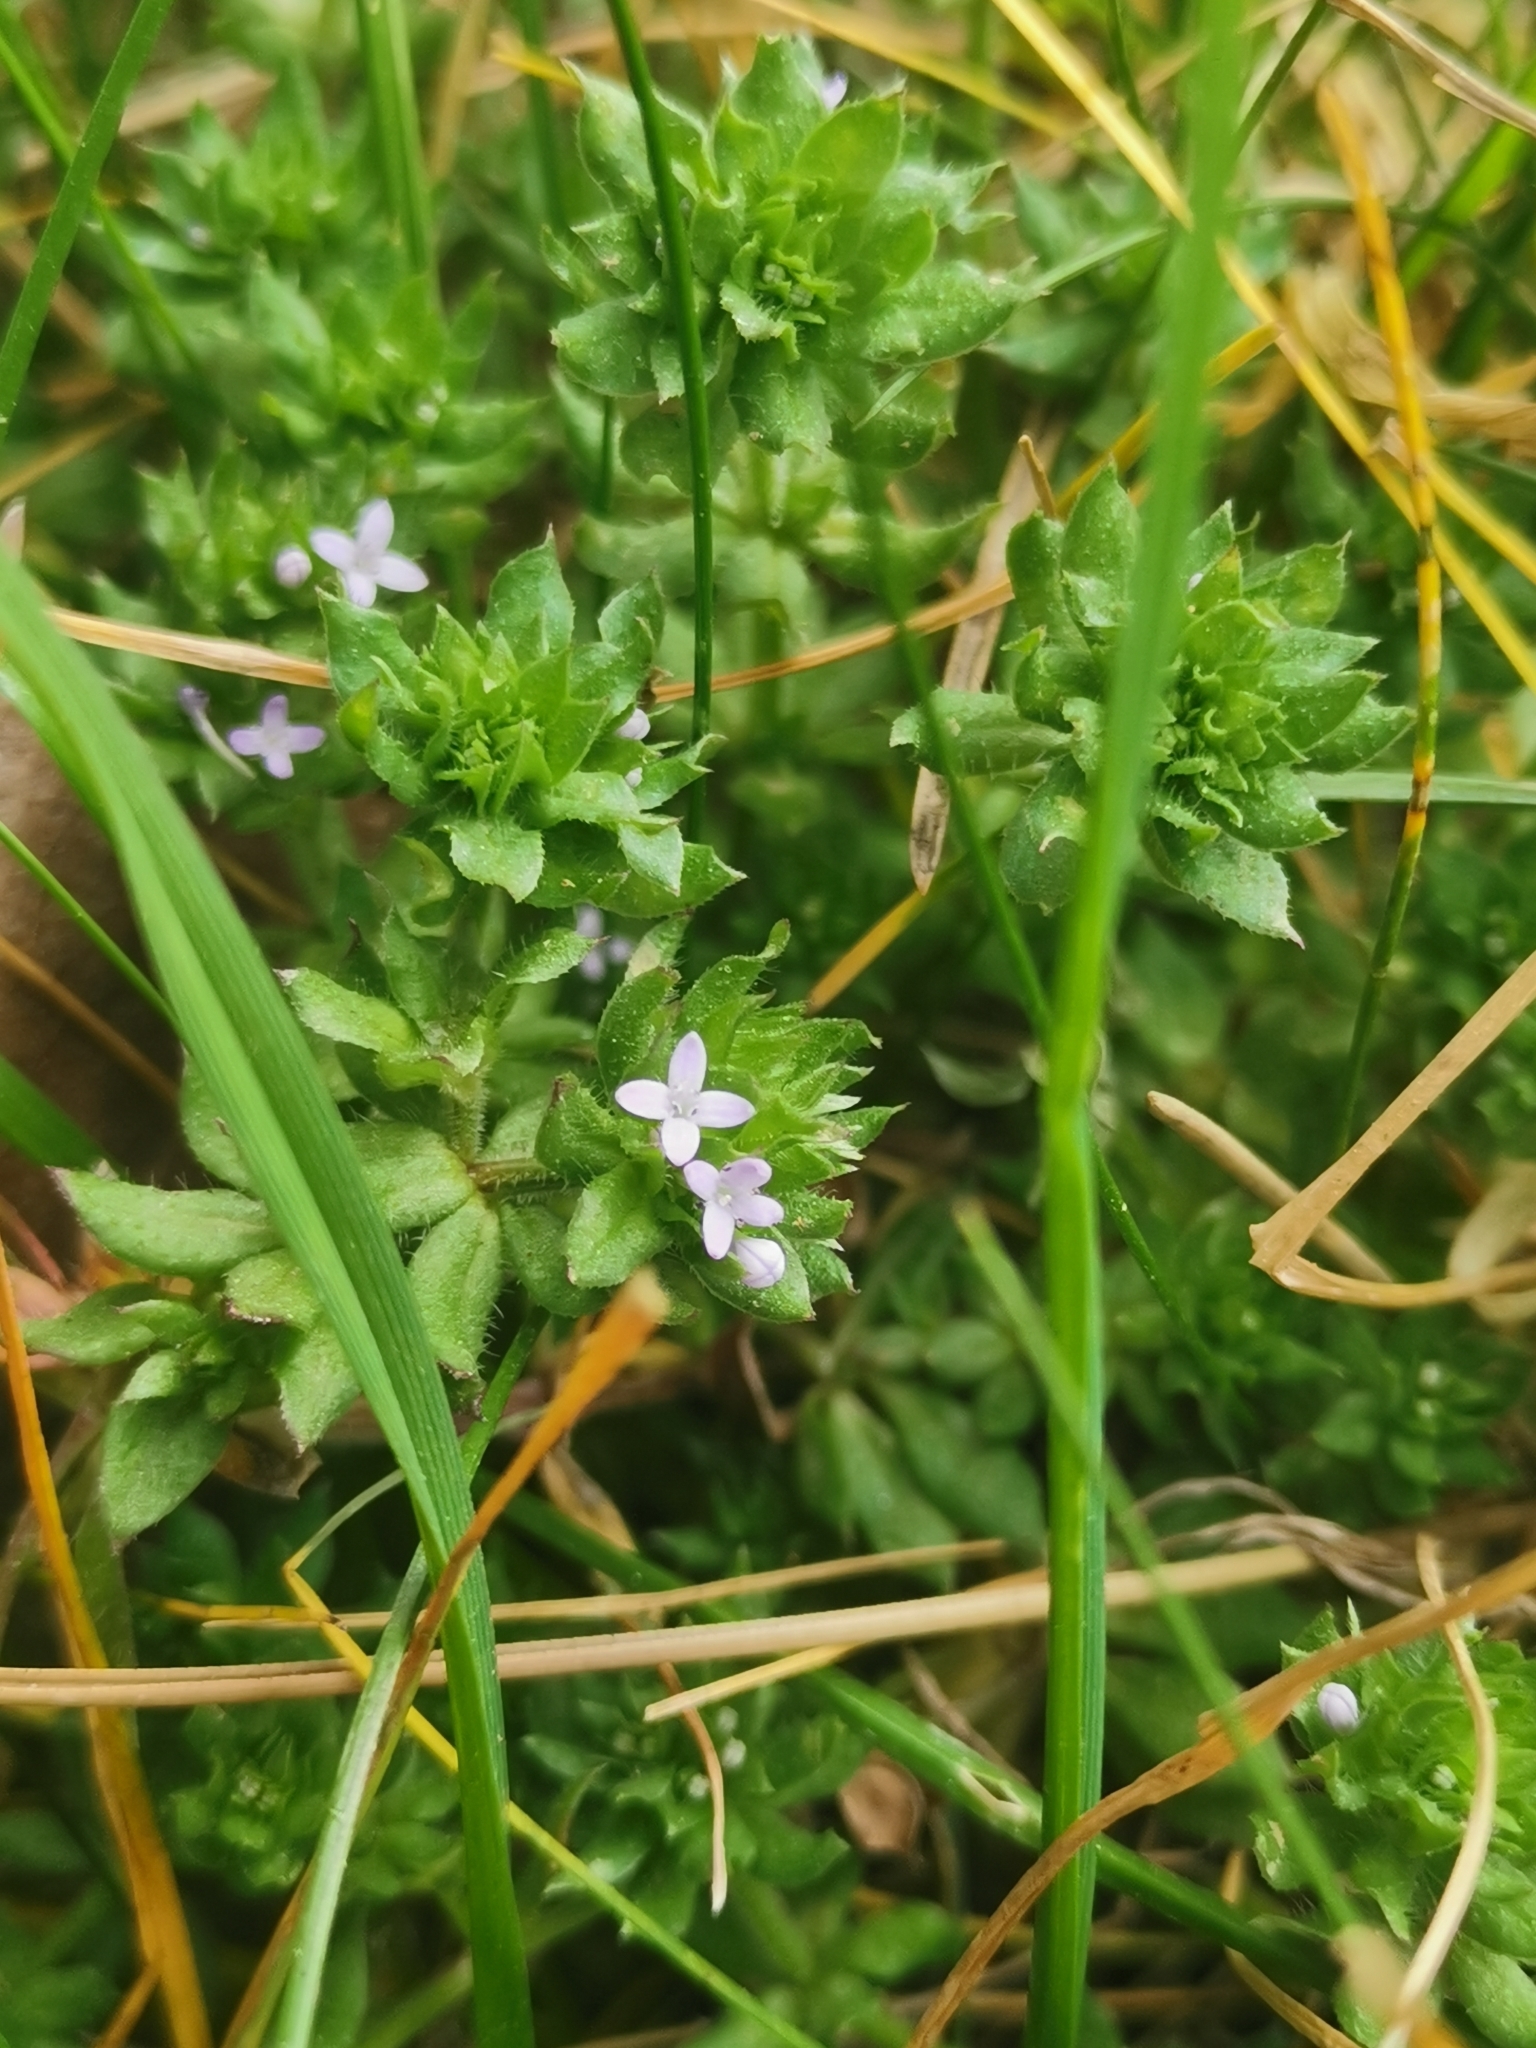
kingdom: Plantae
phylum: Tracheophyta
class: Magnoliopsida
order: Gentianales
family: Rubiaceae
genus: Sherardia
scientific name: Sherardia arvensis
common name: Field madder
